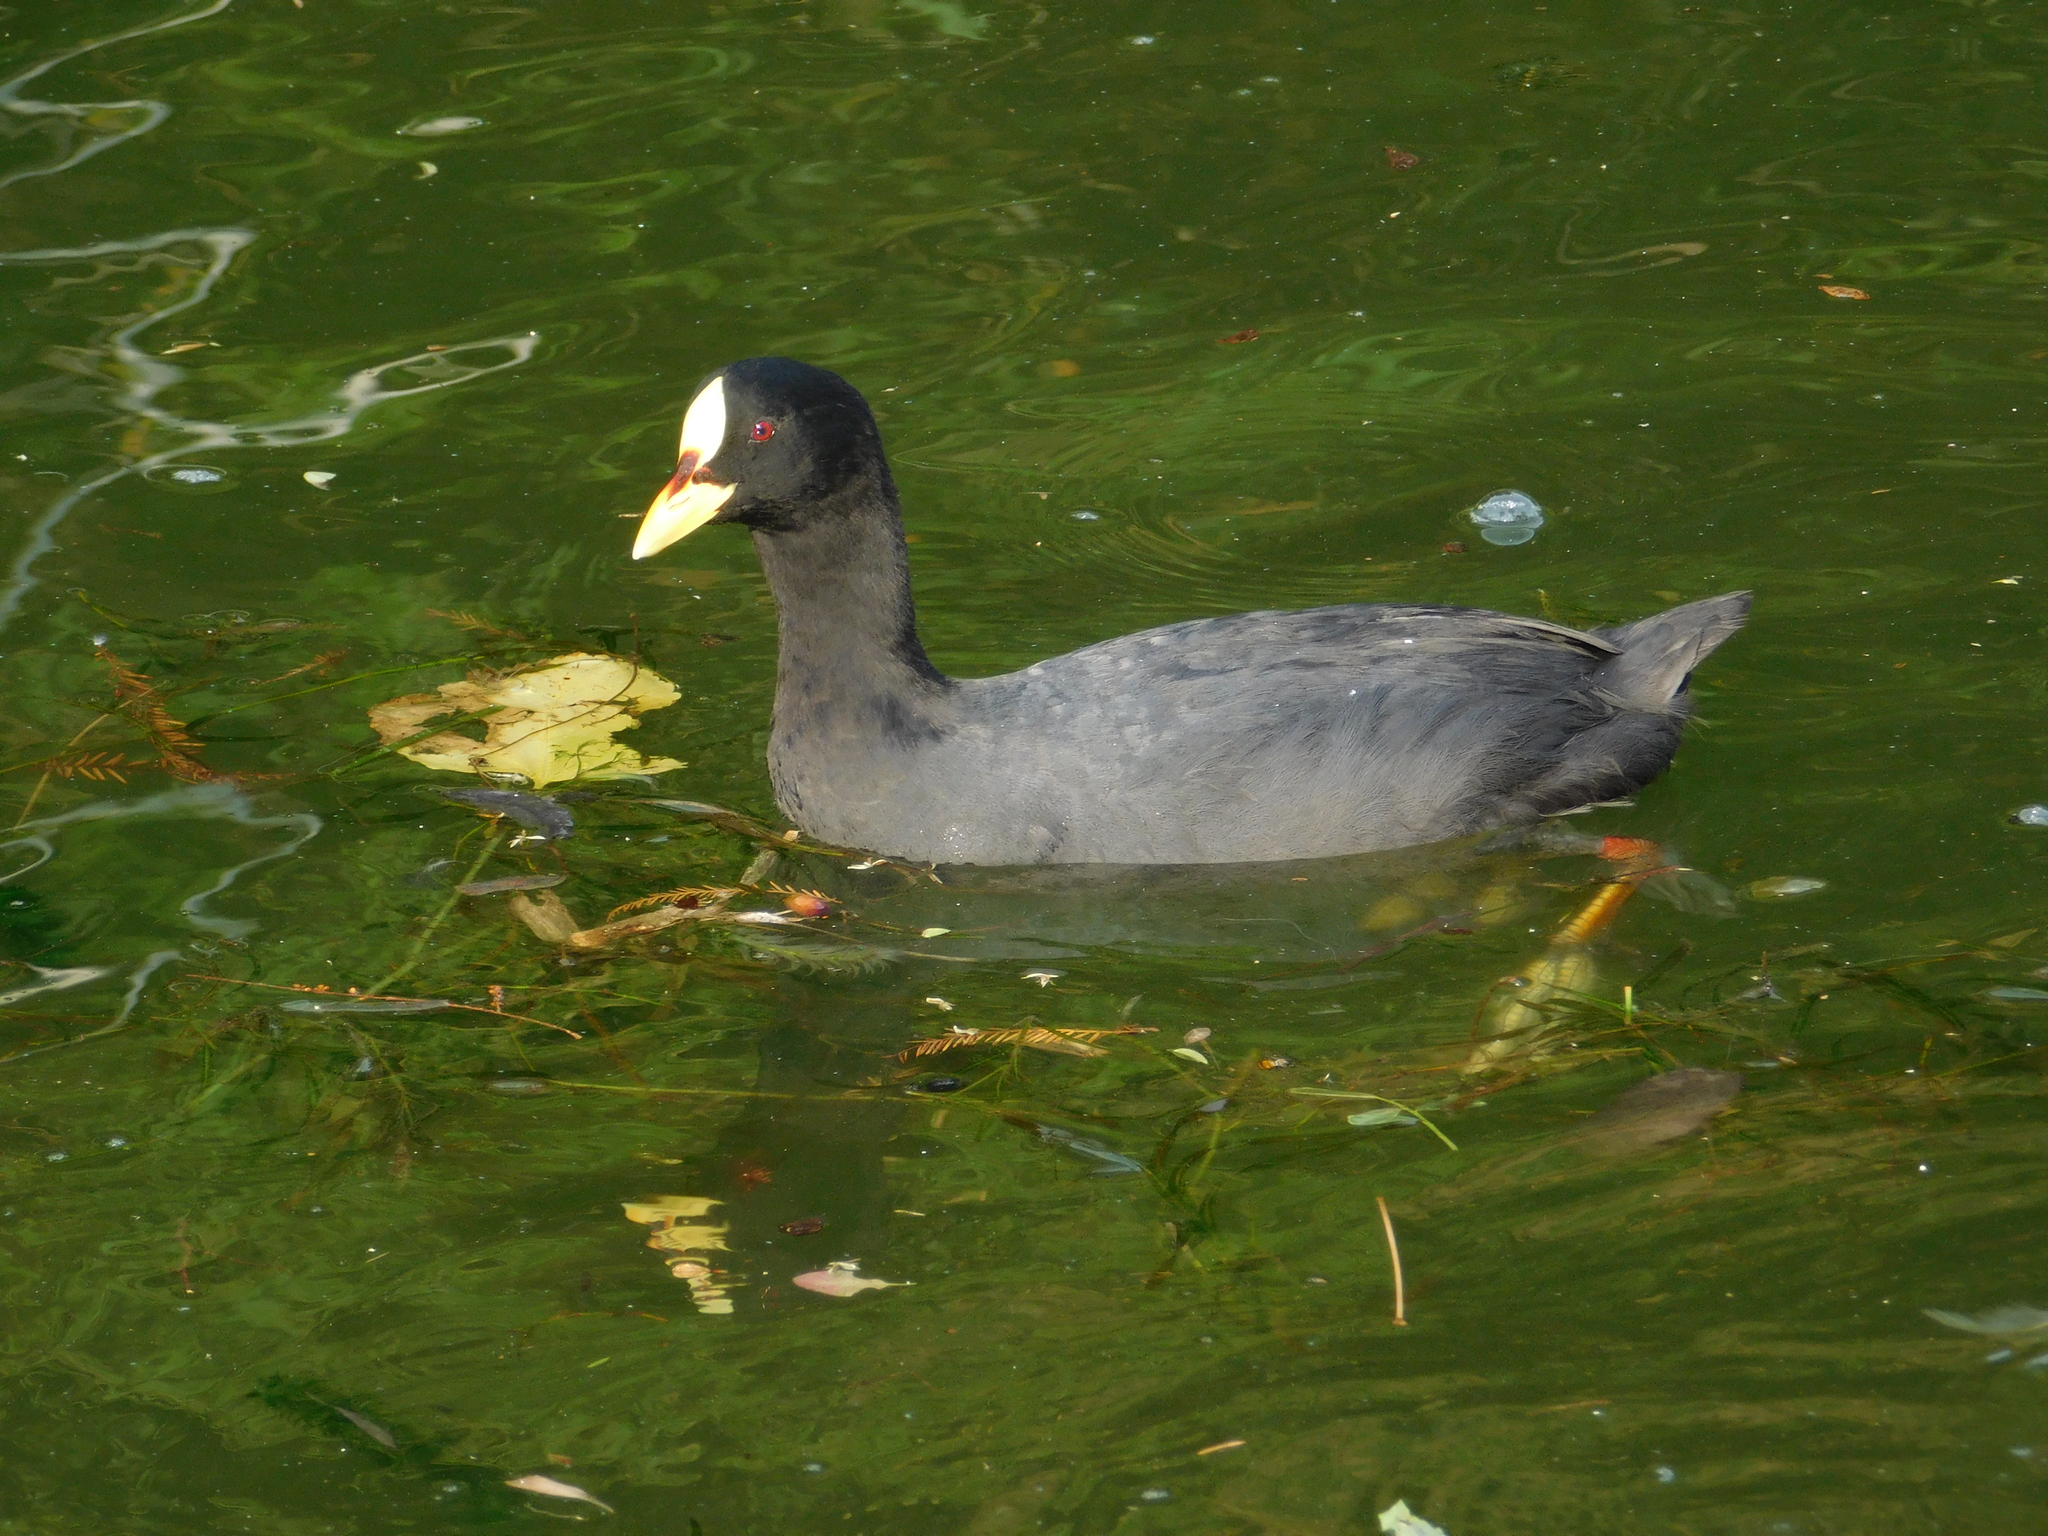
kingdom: Animalia
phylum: Chordata
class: Aves
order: Gruiformes
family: Rallidae
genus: Fulica
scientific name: Fulica armillata
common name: Red-gartered coot
